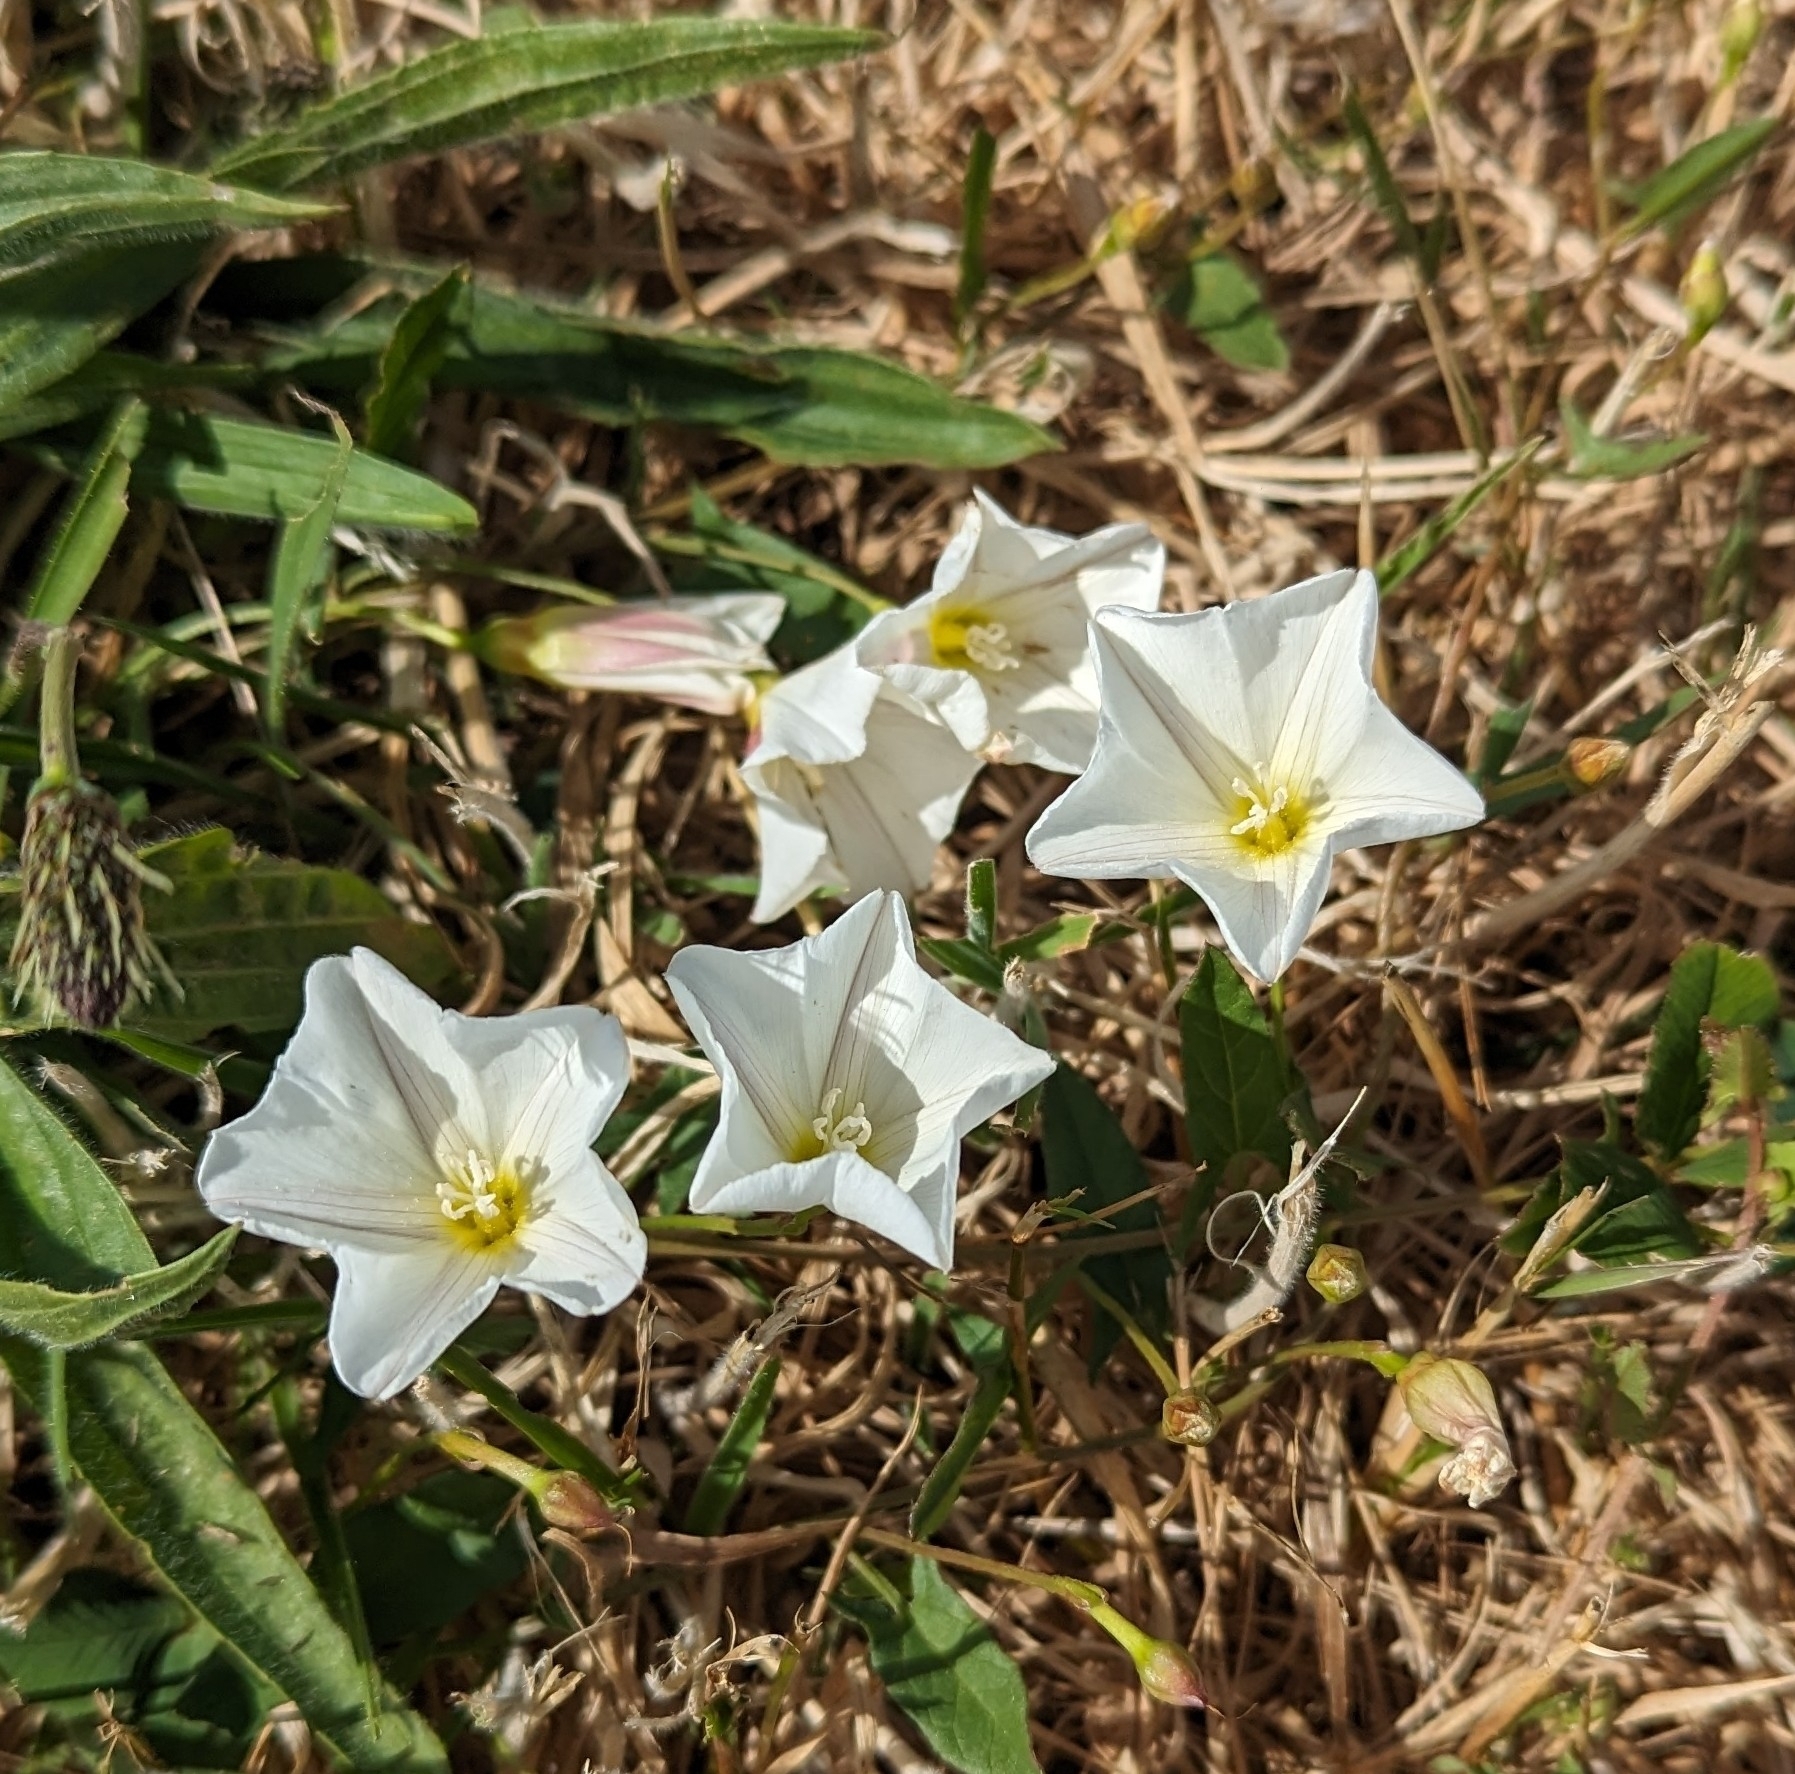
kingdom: Plantae
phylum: Tracheophyta
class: Magnoliopsida
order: Solanales
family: Convolvulaceae
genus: Convolvulus
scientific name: Convolvulus arvensis
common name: Field bindweed
